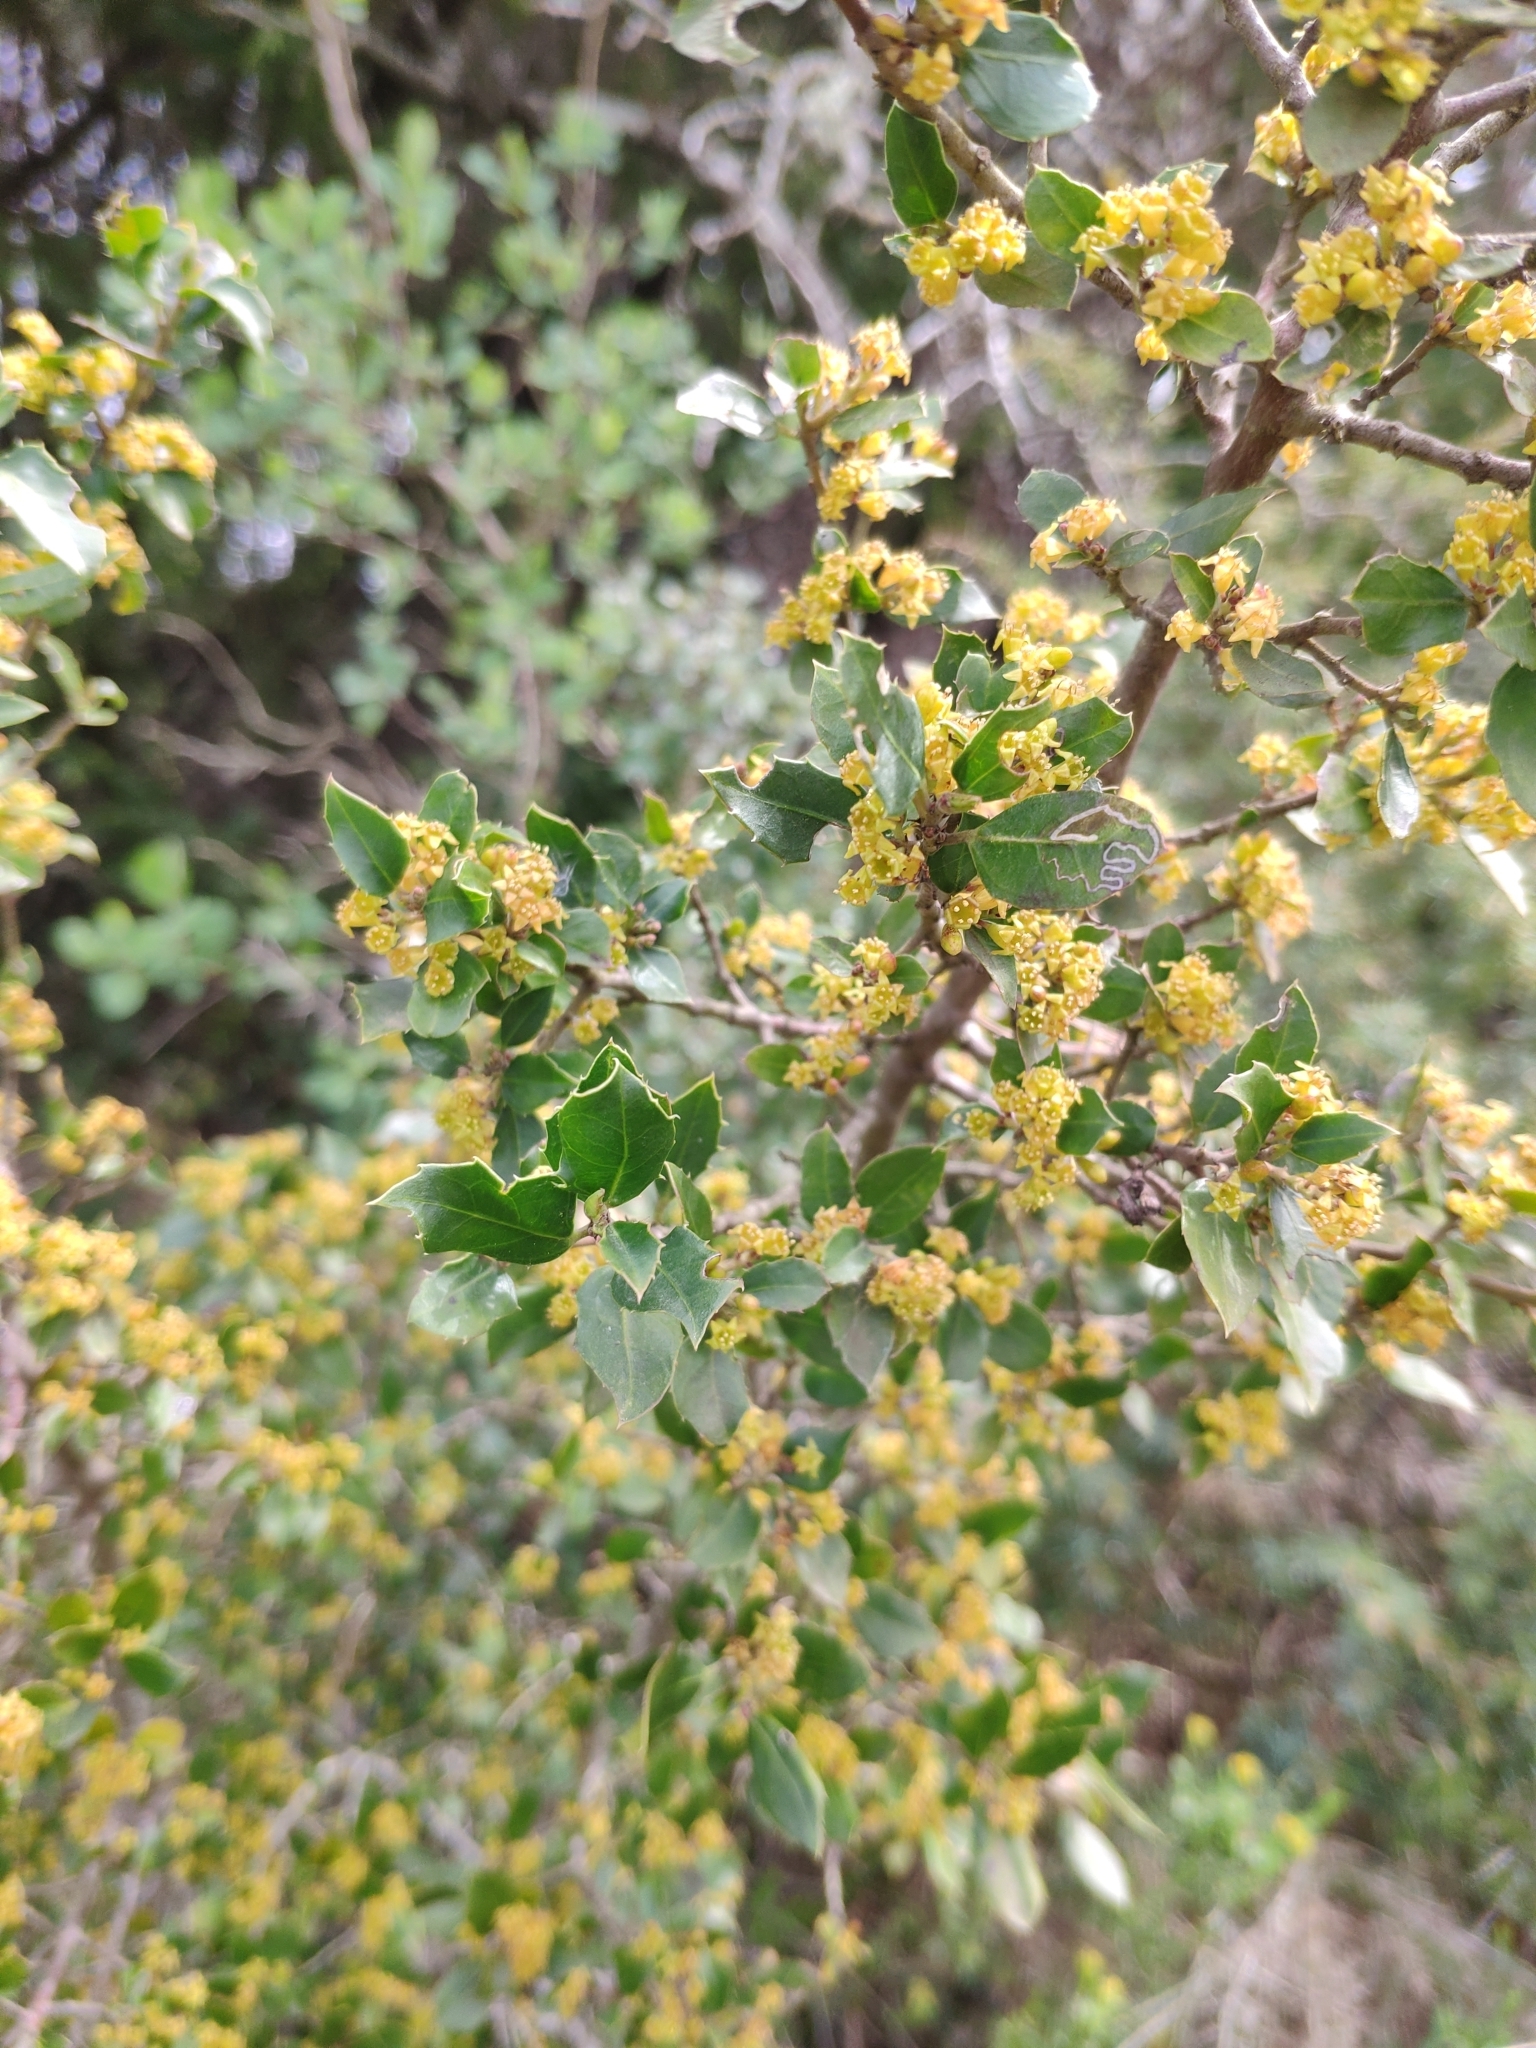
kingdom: Plantae
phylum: Tracheophyta
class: Magnoliopsida
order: Rosales
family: Rhamnaceae
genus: Rhamnus
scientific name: Rhamnus alaternus
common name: Mediterranean buckthorn
